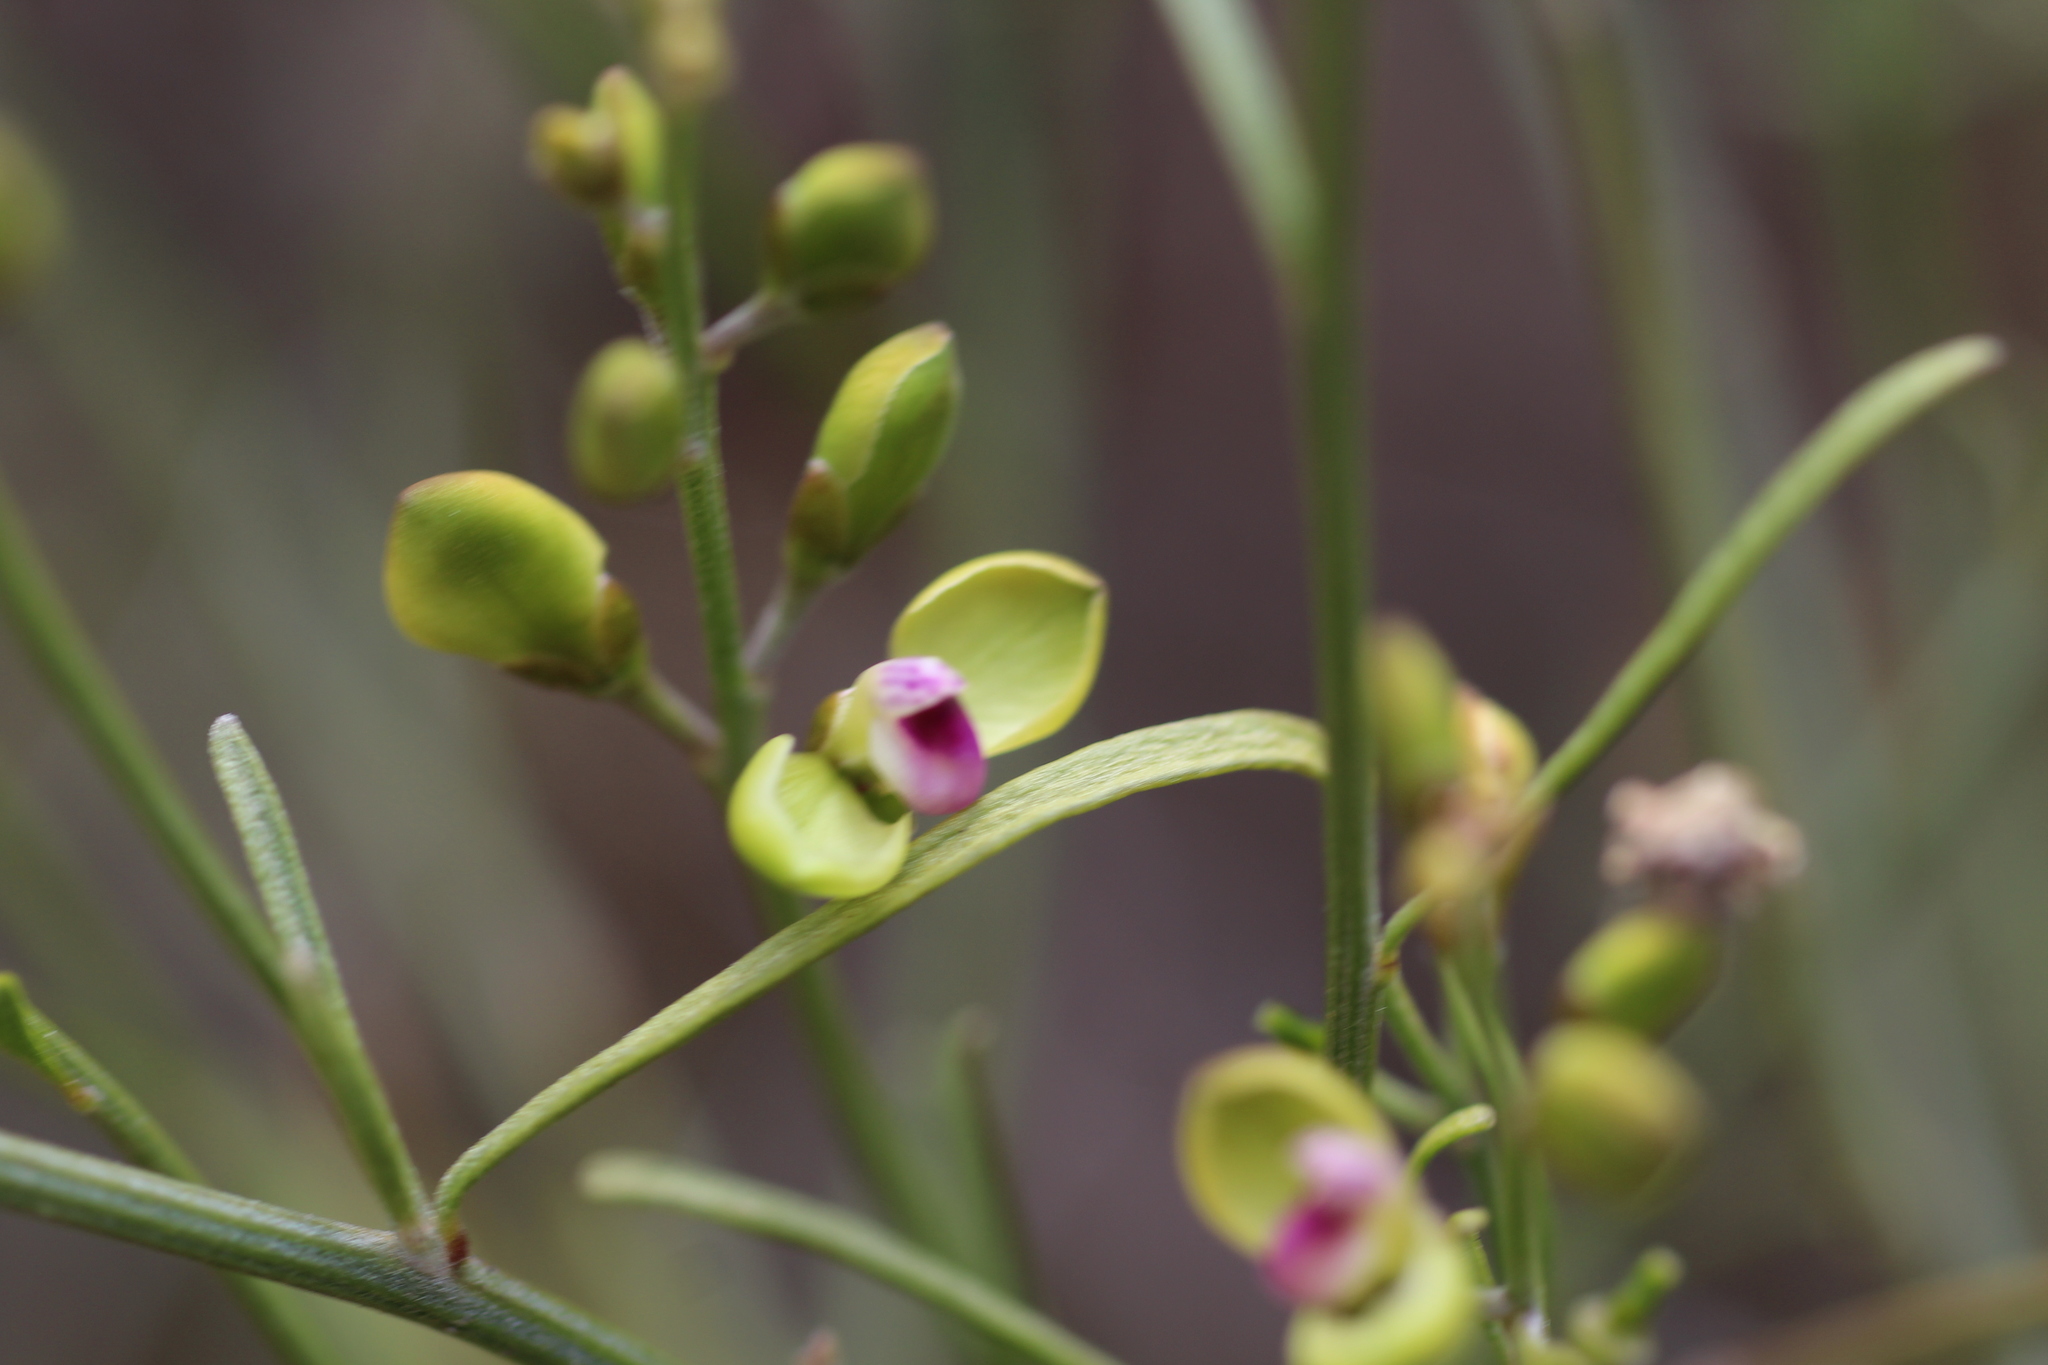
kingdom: Plantae
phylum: Tracheophyta
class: Magnoliopsida
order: Fabales
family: Polygalaceae
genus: Comesperma
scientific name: Comesperma integerrimum
